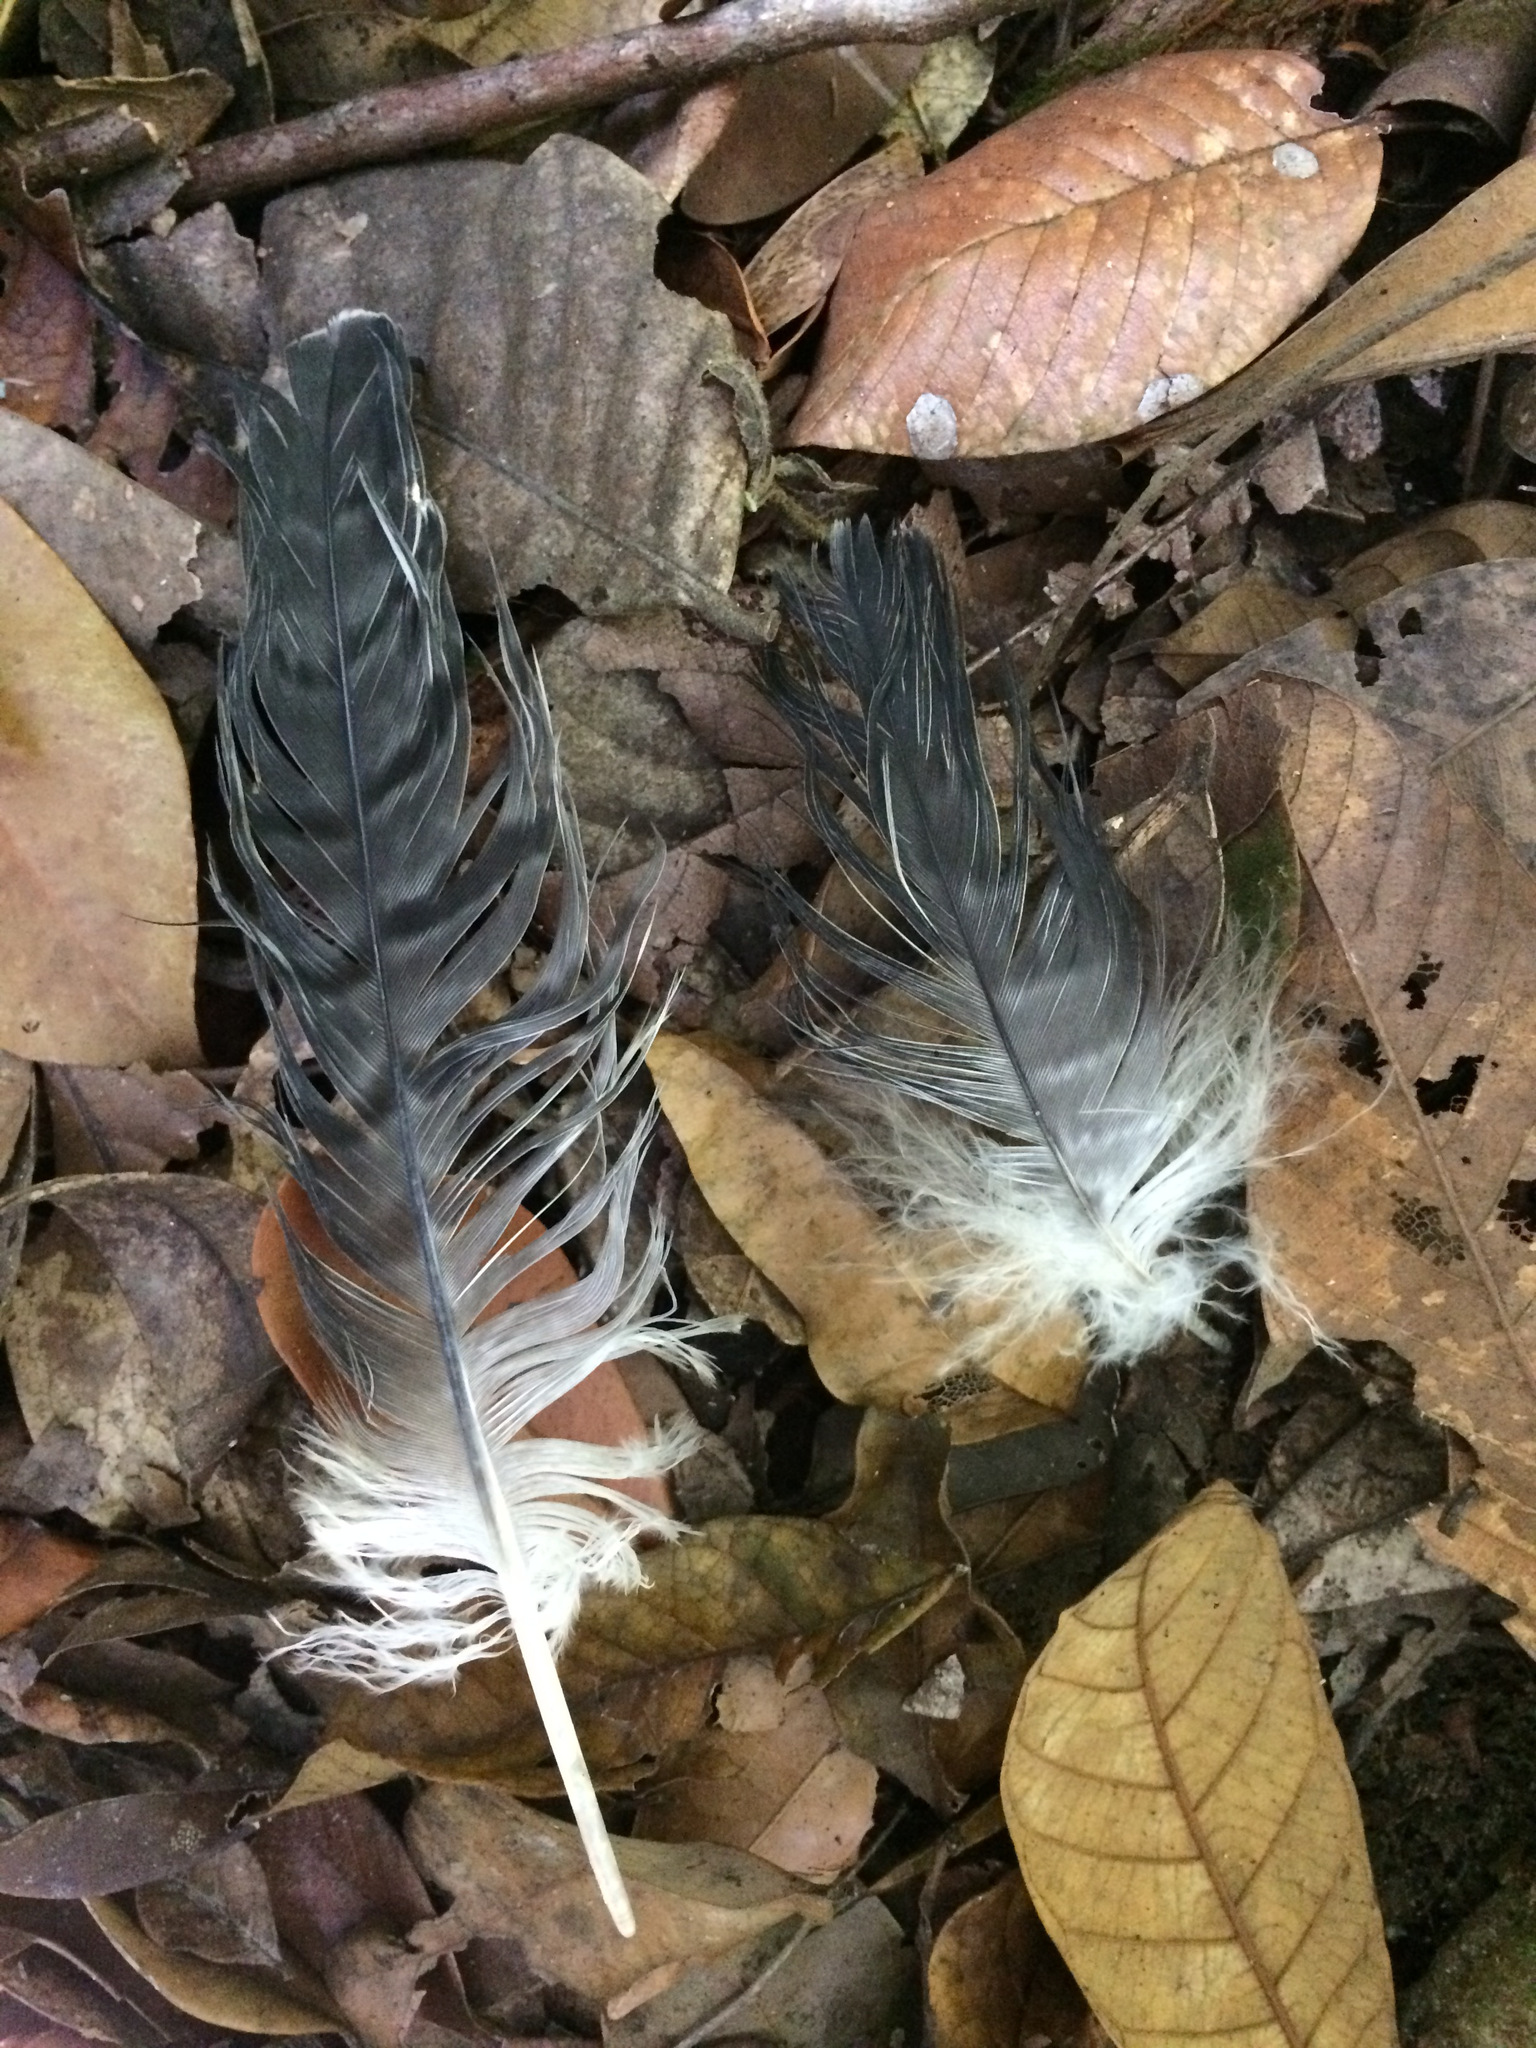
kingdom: Animalia
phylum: Chordata
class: Aves
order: Accipitriformes
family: Accipitridae
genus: Leptodon
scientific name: Leptodon forbesi
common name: White-collared kite
